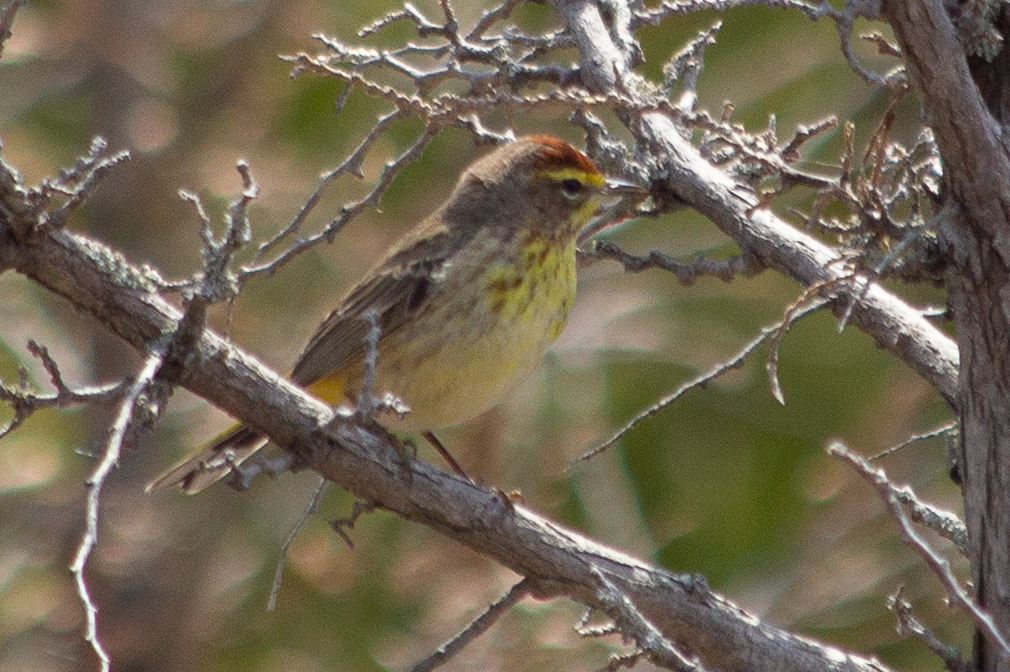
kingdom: Animalia
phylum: Chordata
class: Aves
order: Passeriformes
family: Parulidae
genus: Setophaga
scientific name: Setophaga palmarum
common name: Palm warbler
